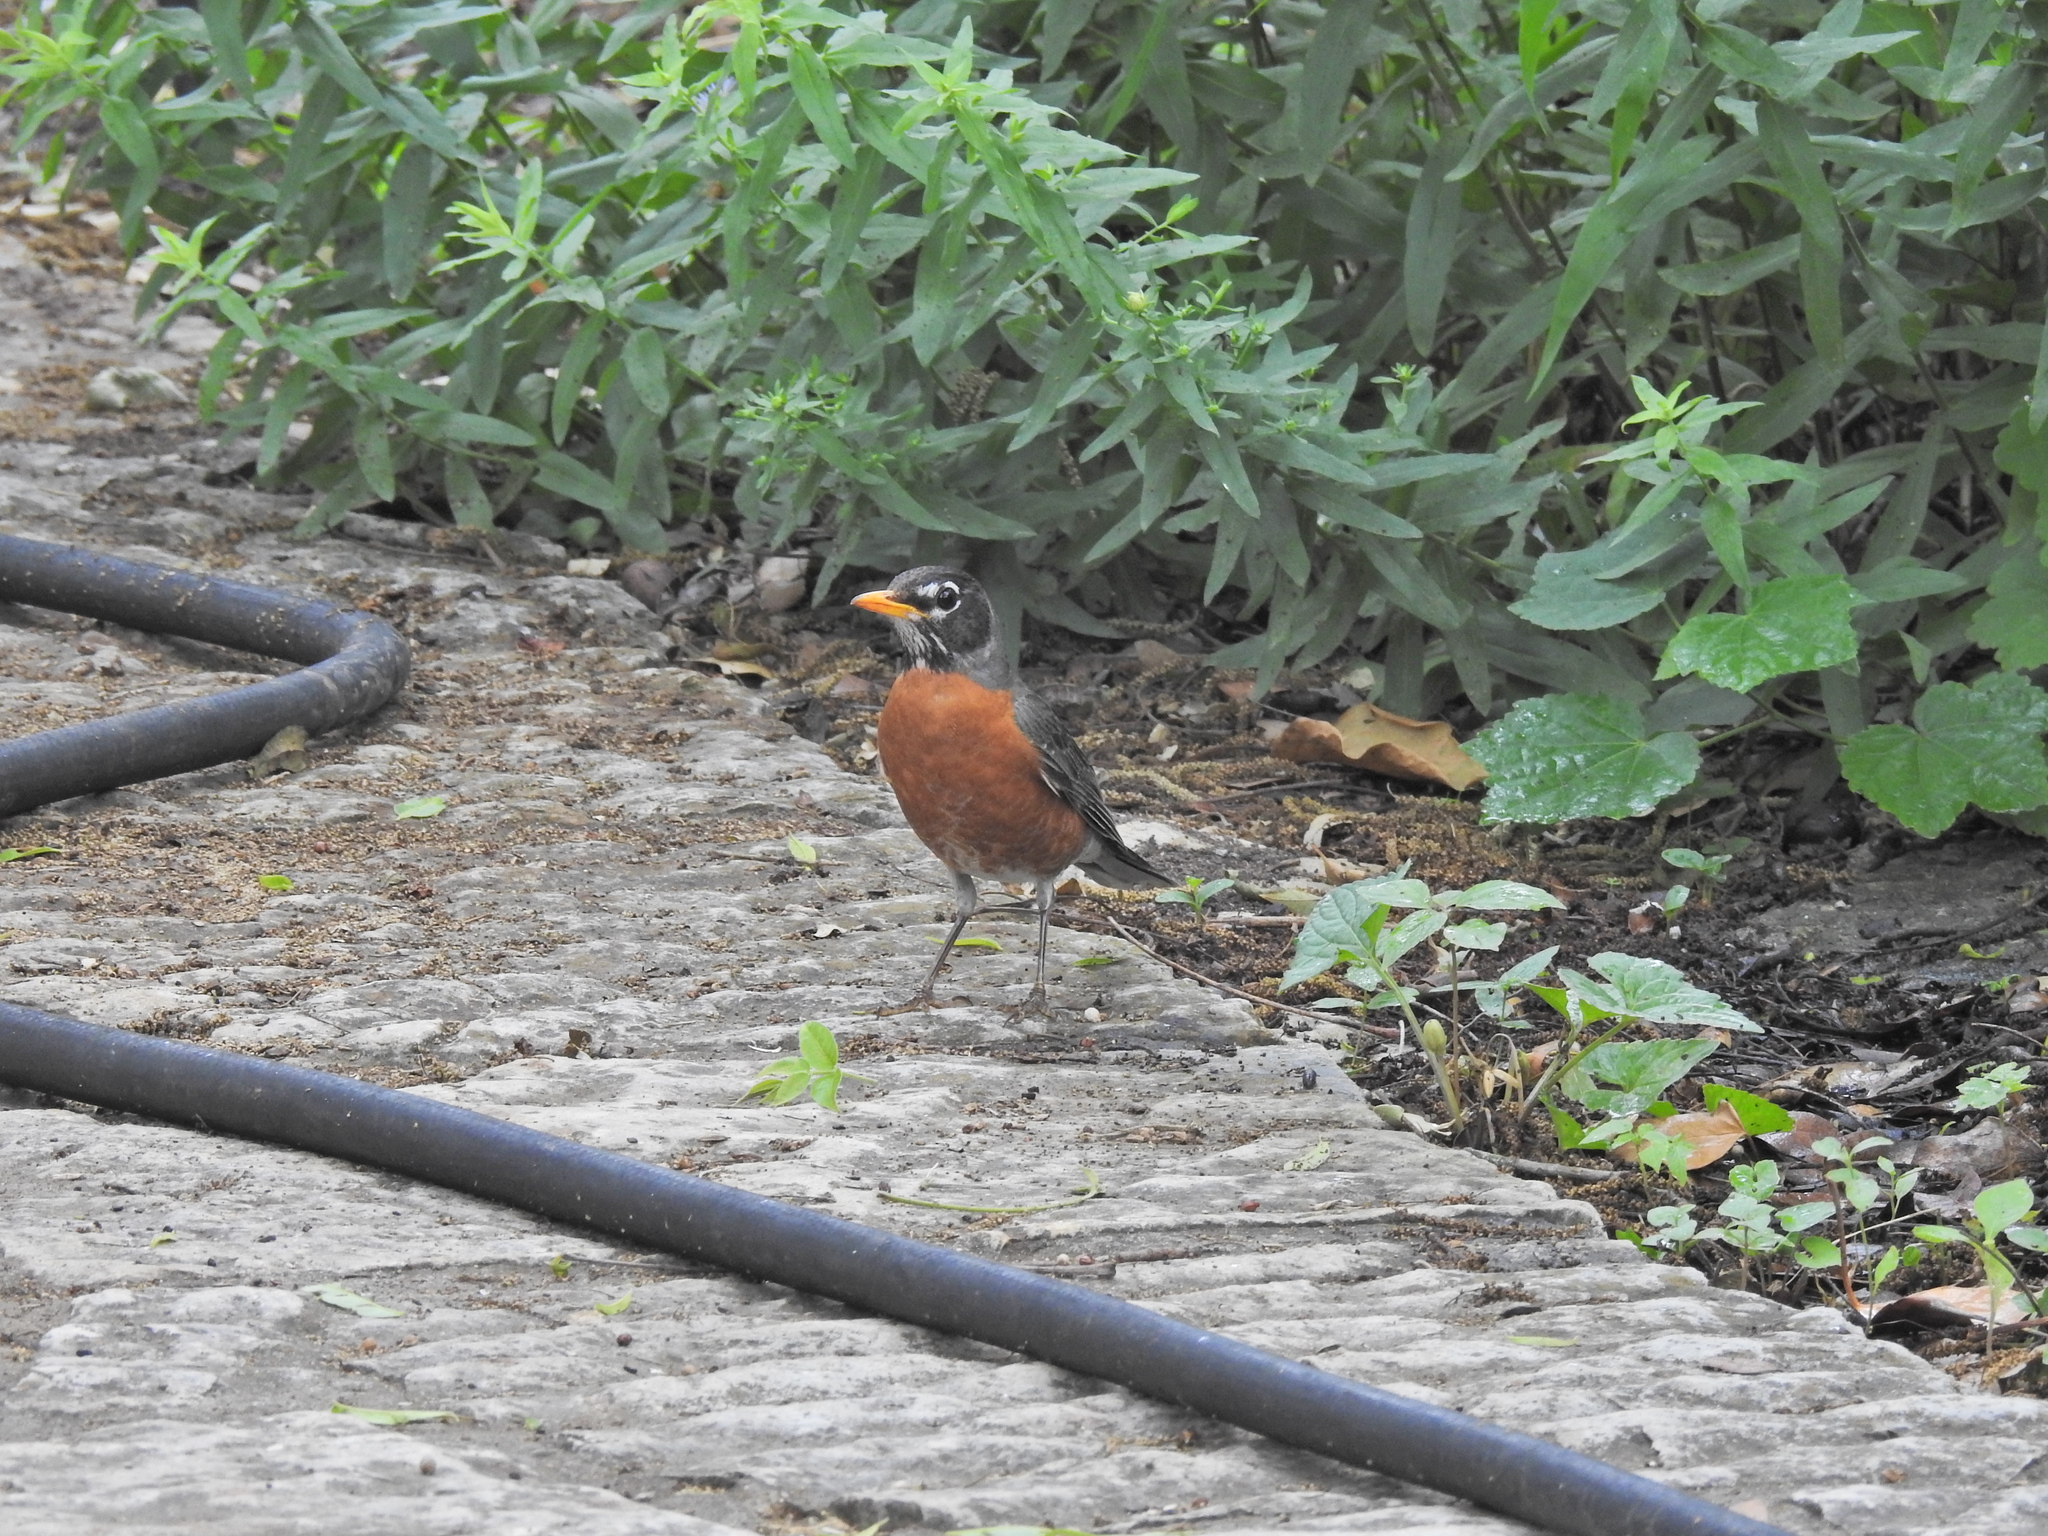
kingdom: Animalia
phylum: Chordata
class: Aves
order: Passeriformes
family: Turdidae
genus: Turdus
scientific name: Turdus migratorius
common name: American robin
